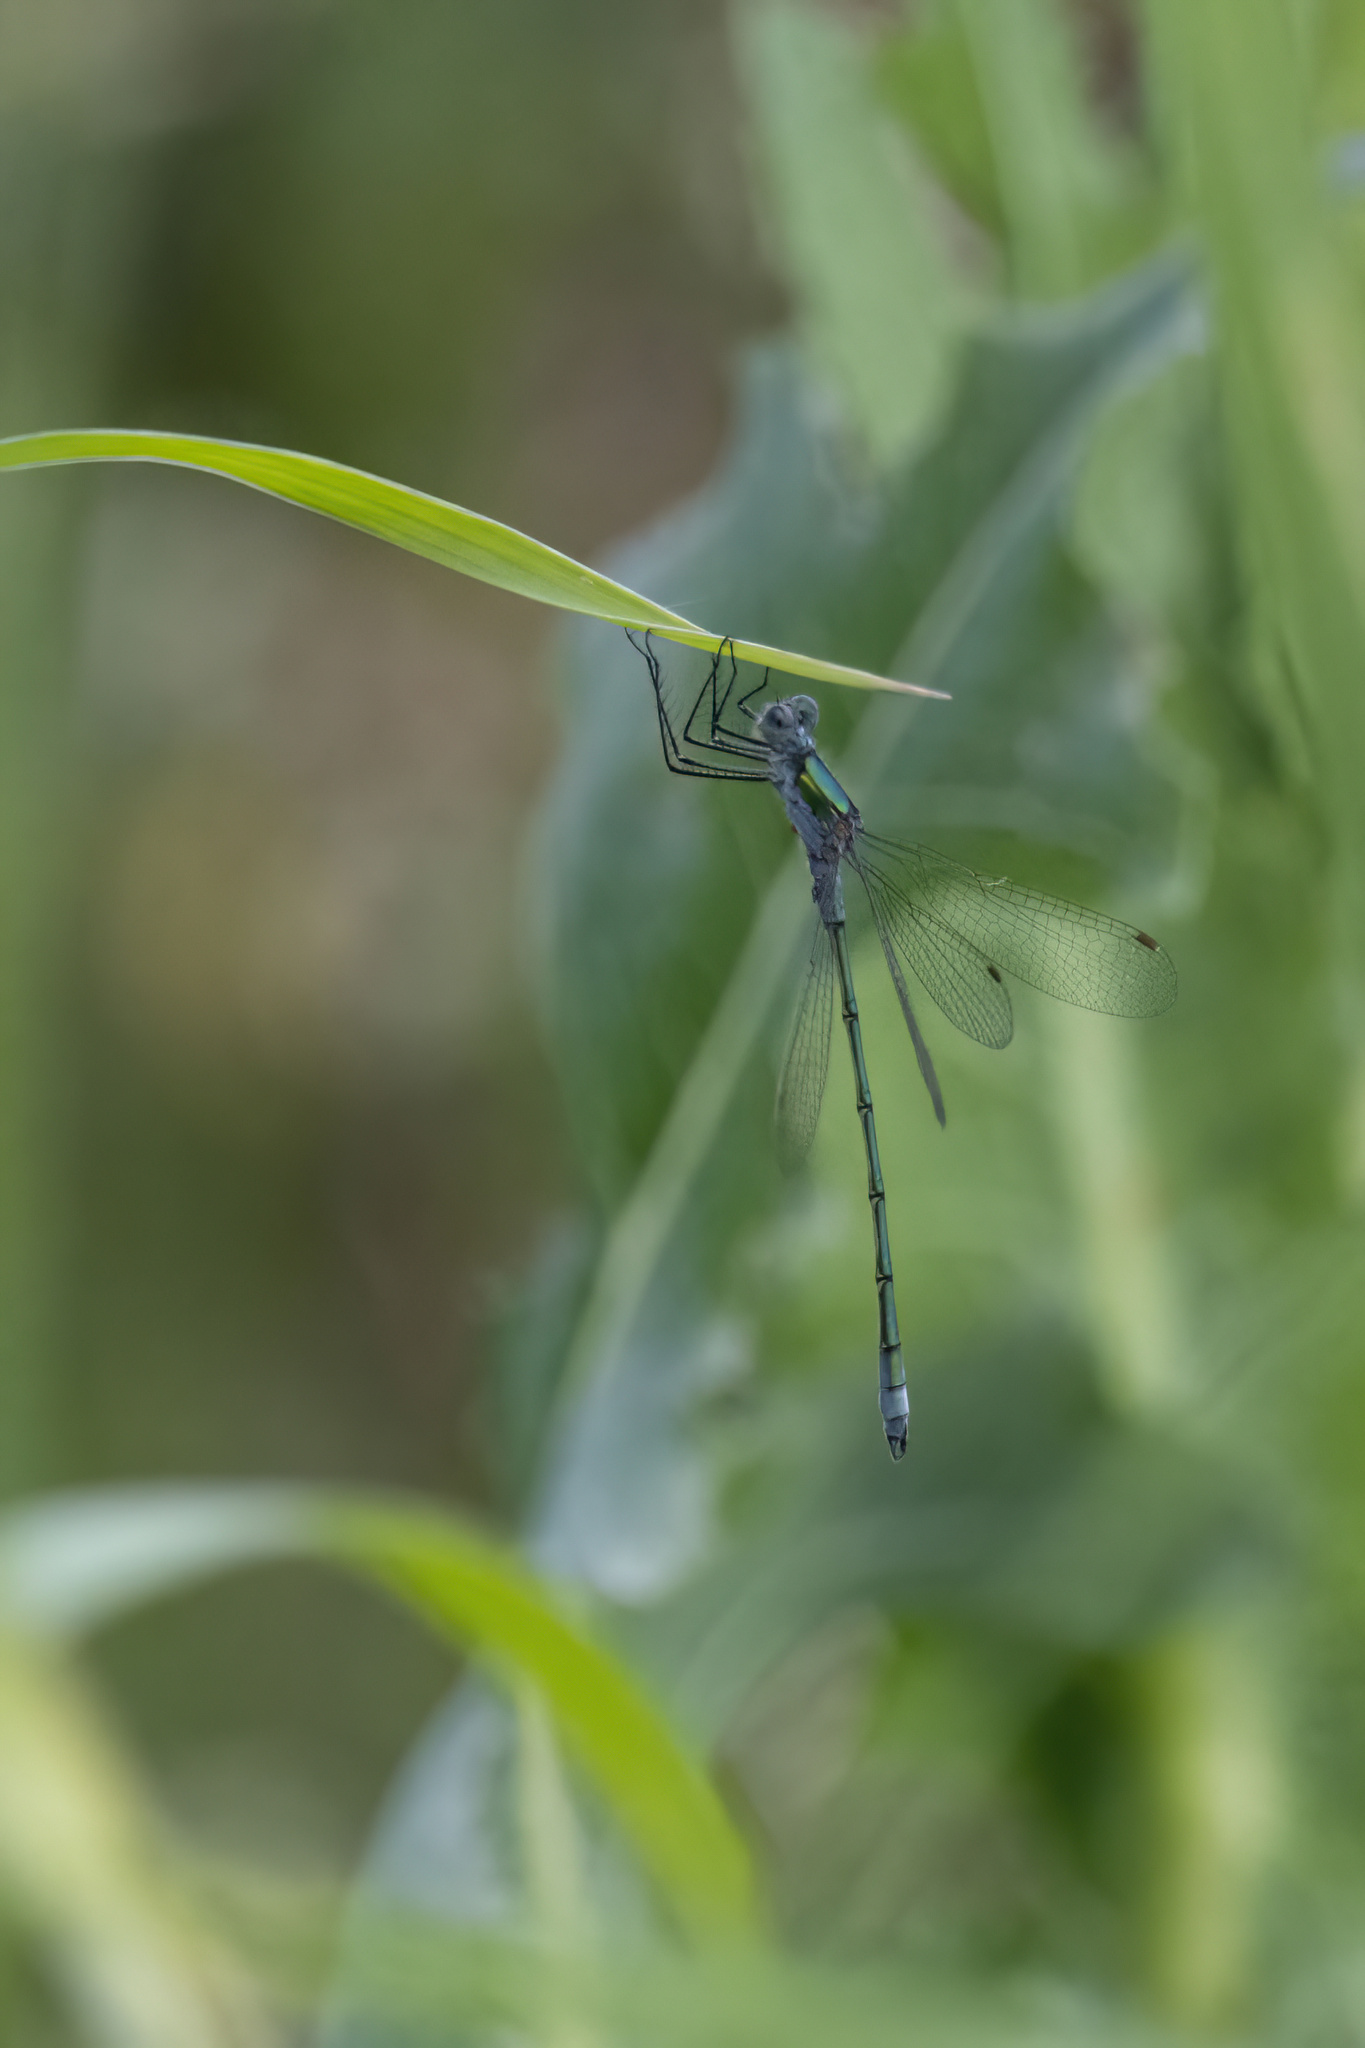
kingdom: Animalia
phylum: Arthropoda
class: Insecta
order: Odonata
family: Lestidae
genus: Lestes
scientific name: Lestes sponsa
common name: Common spreadwing
